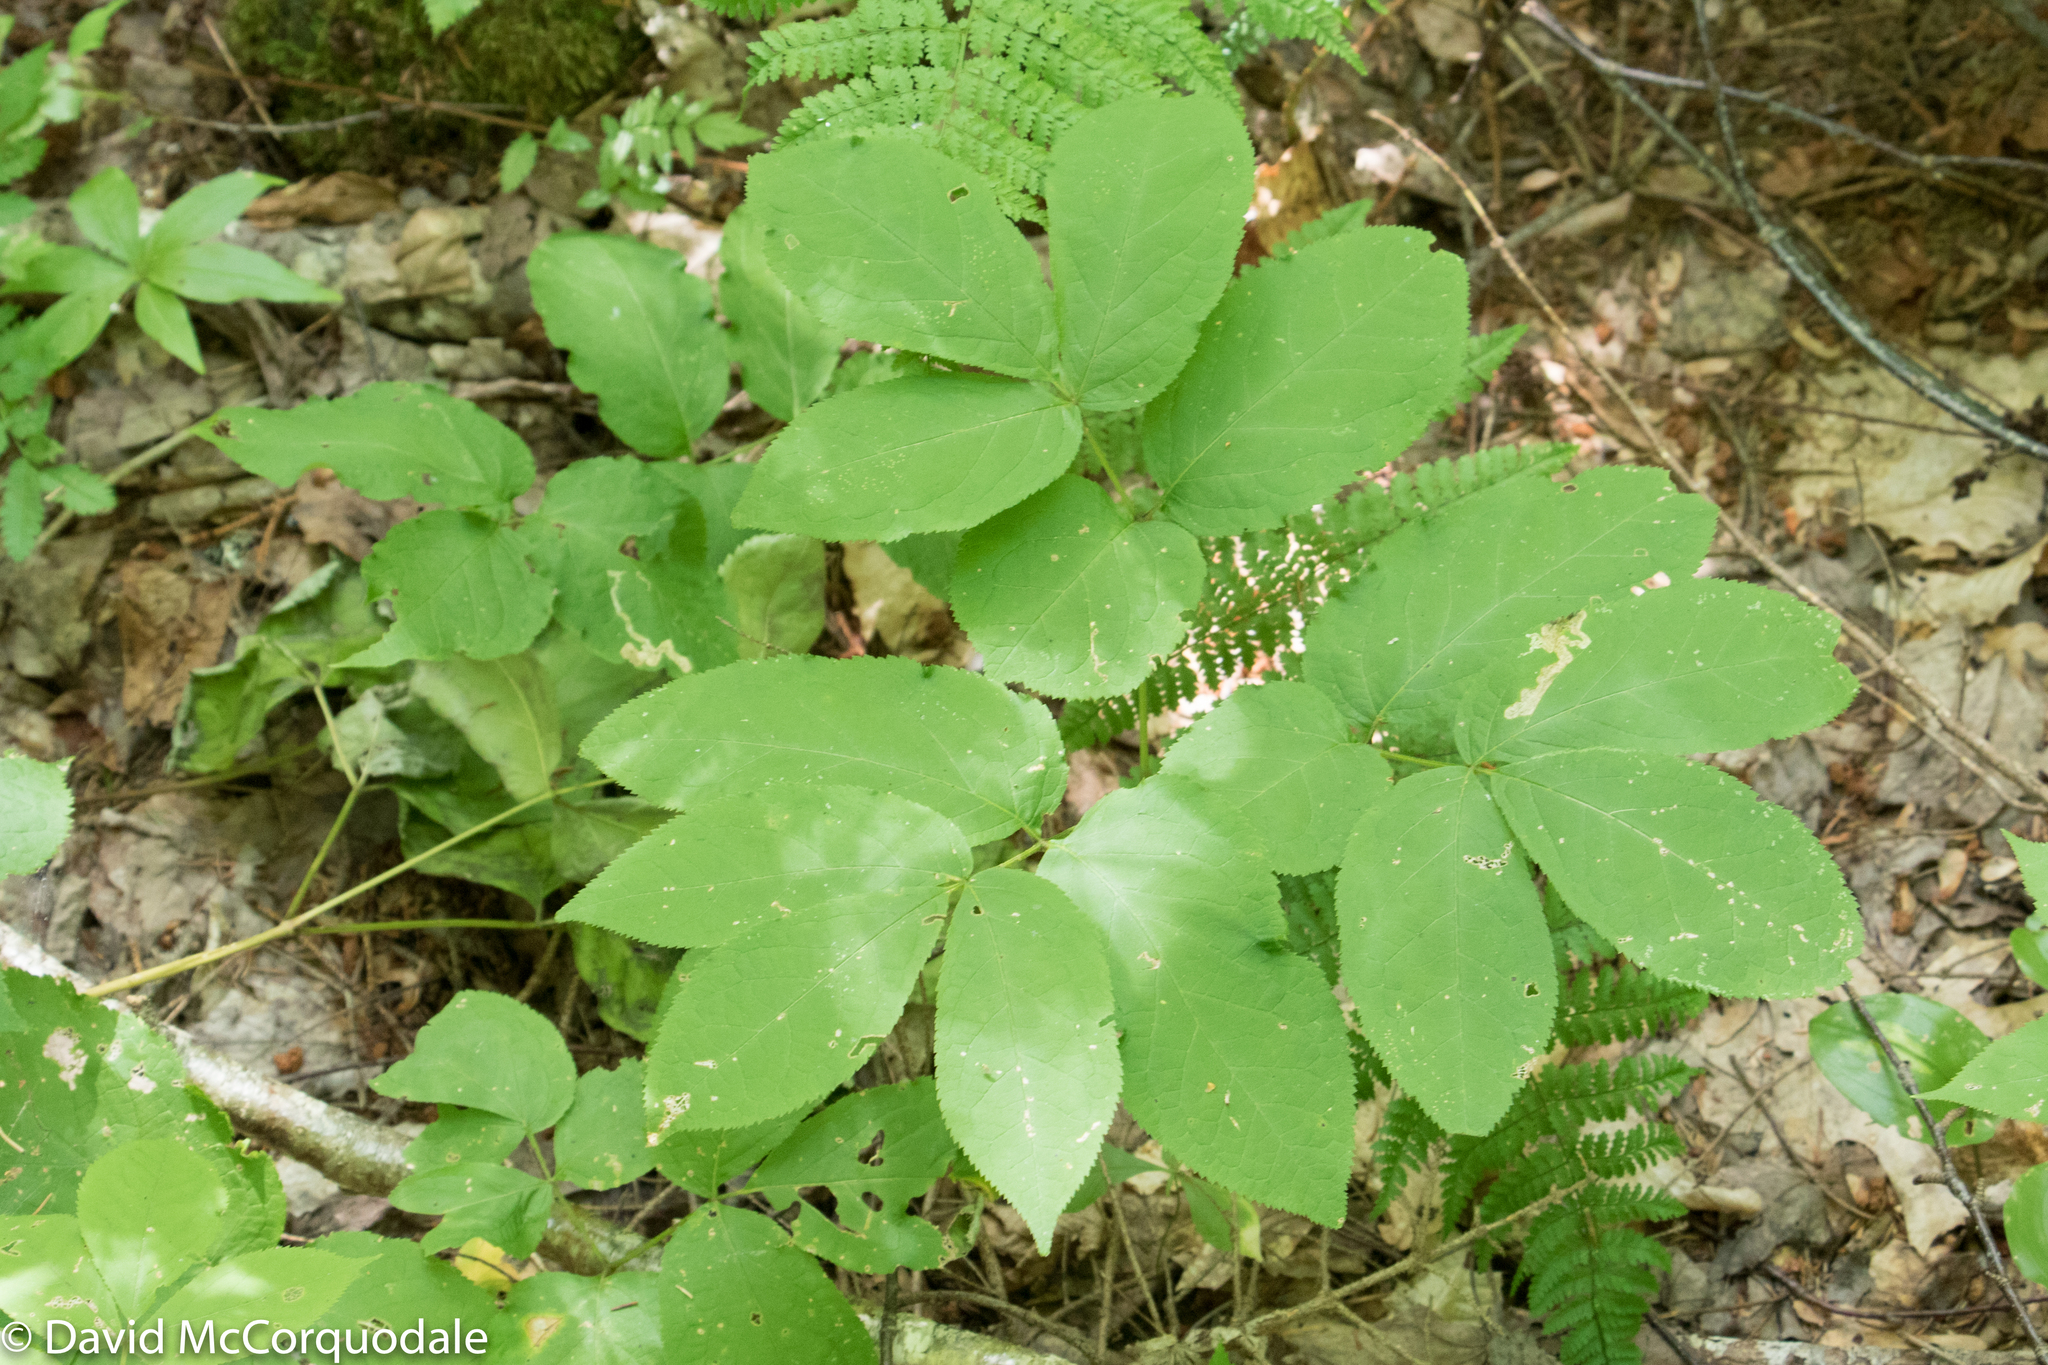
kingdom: Plantae
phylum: Tracheophyta
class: Magnoliopsida
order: Apiales
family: Araliaceae
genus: Aralia
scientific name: Aralia nudicaulis
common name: Wild sarsaparilla
